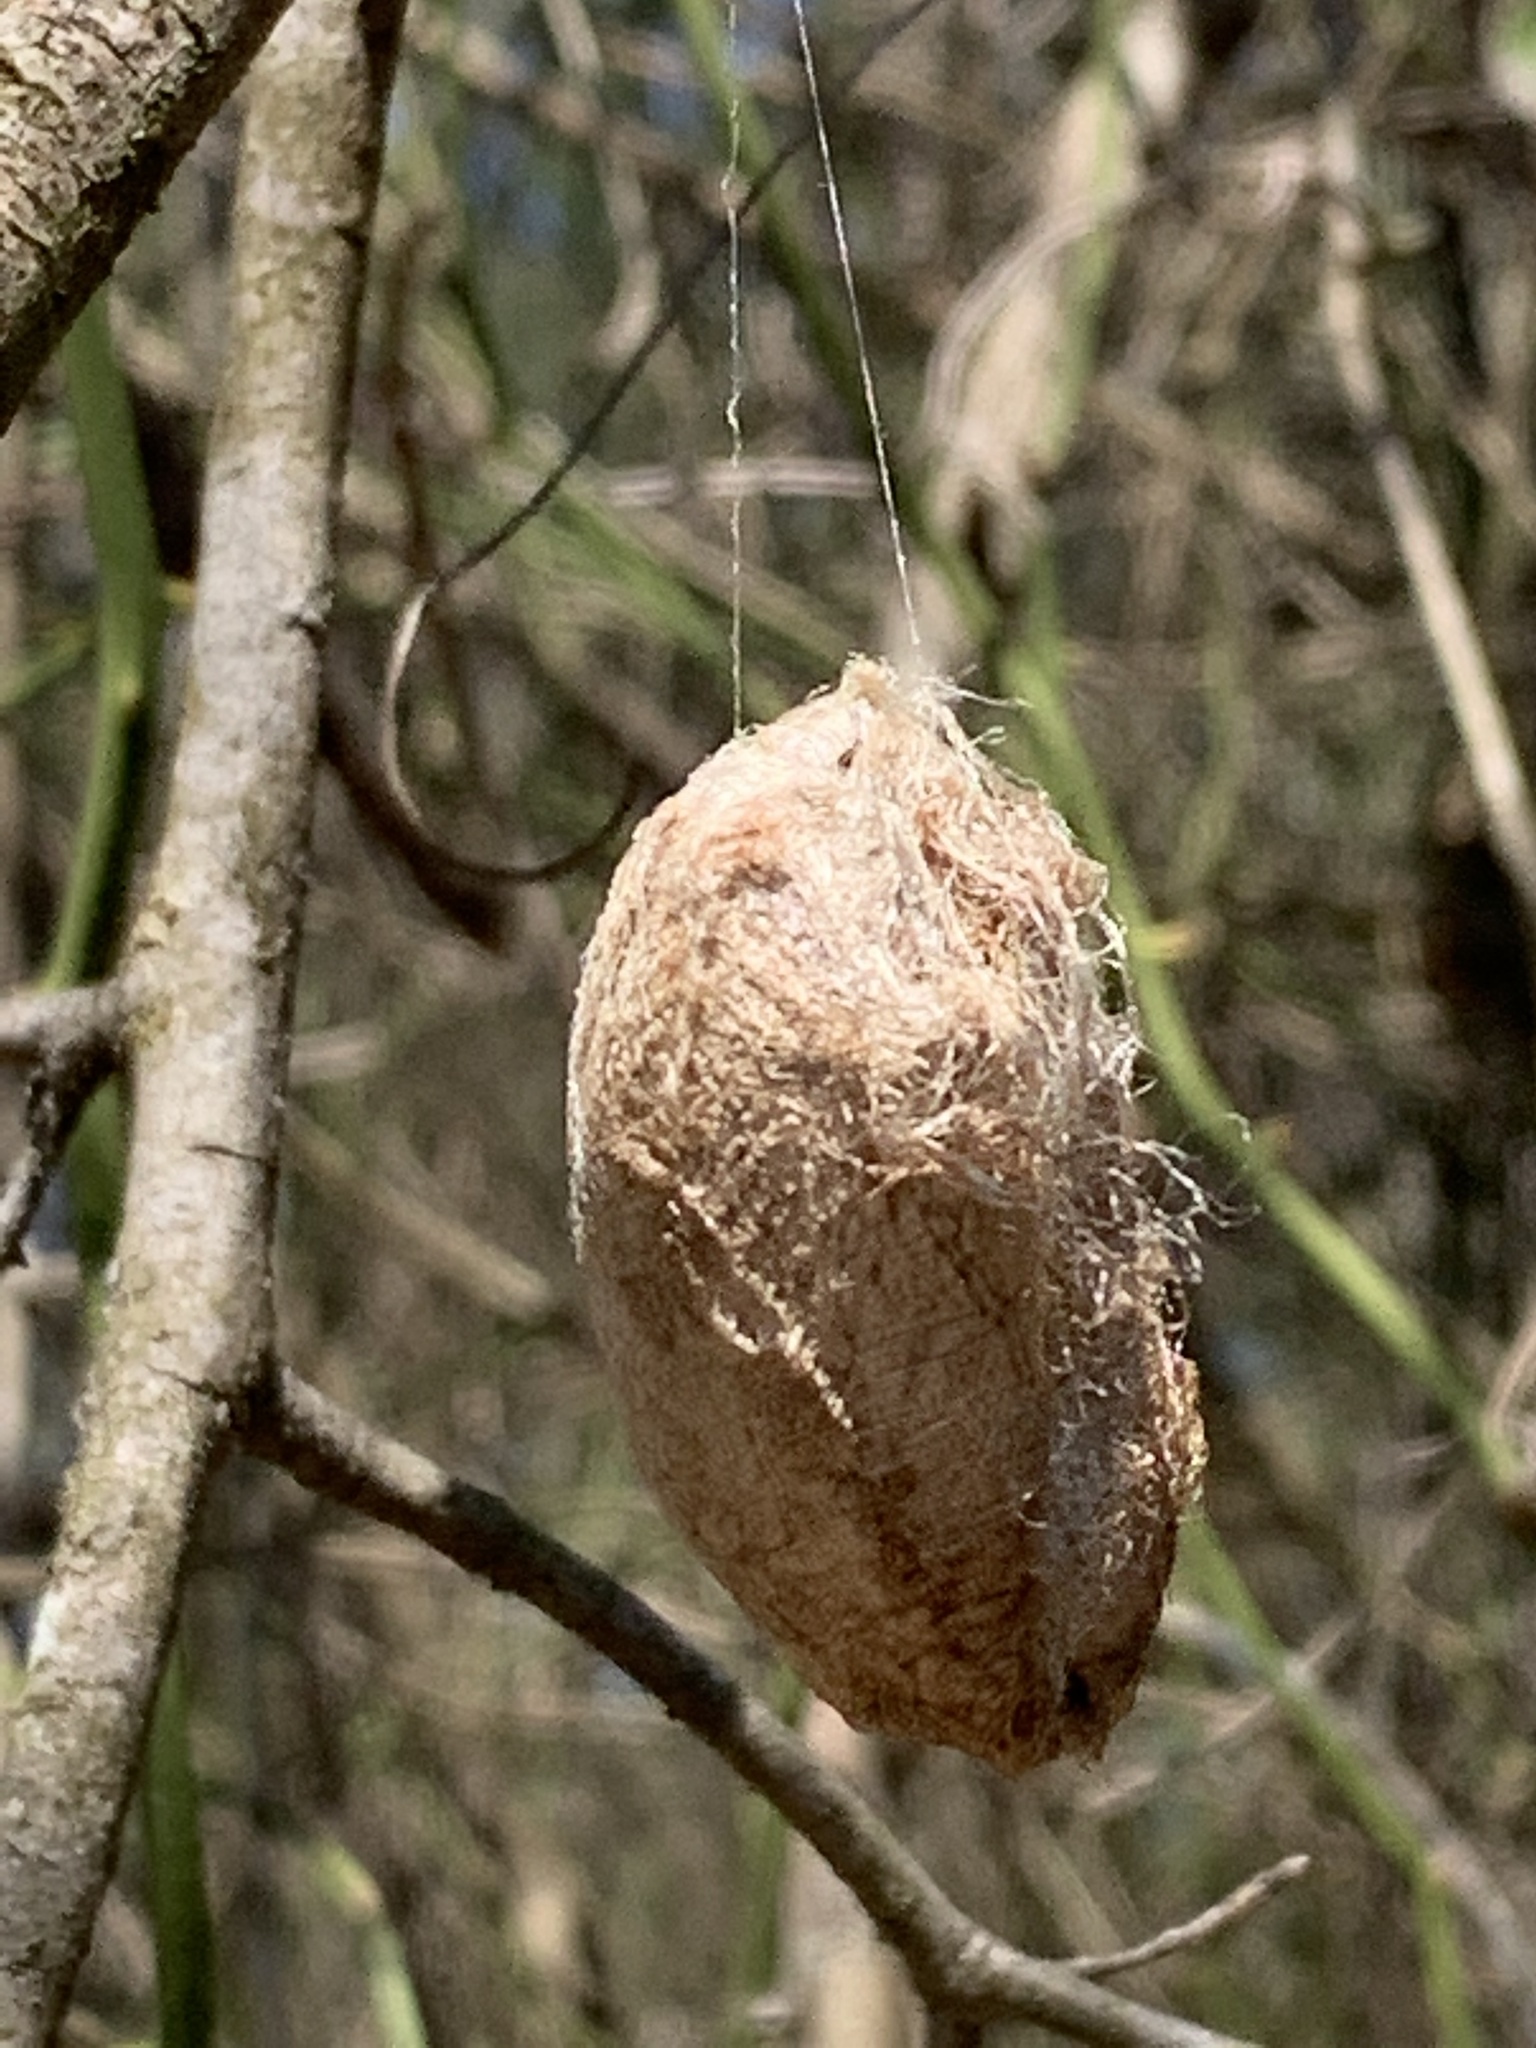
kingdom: Animalia
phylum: Arthropoda
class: Insecta
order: Lepidoptera
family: Saturniidae
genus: Antheraea
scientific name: Antheraea polyphemus
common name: Polyphemus moth
